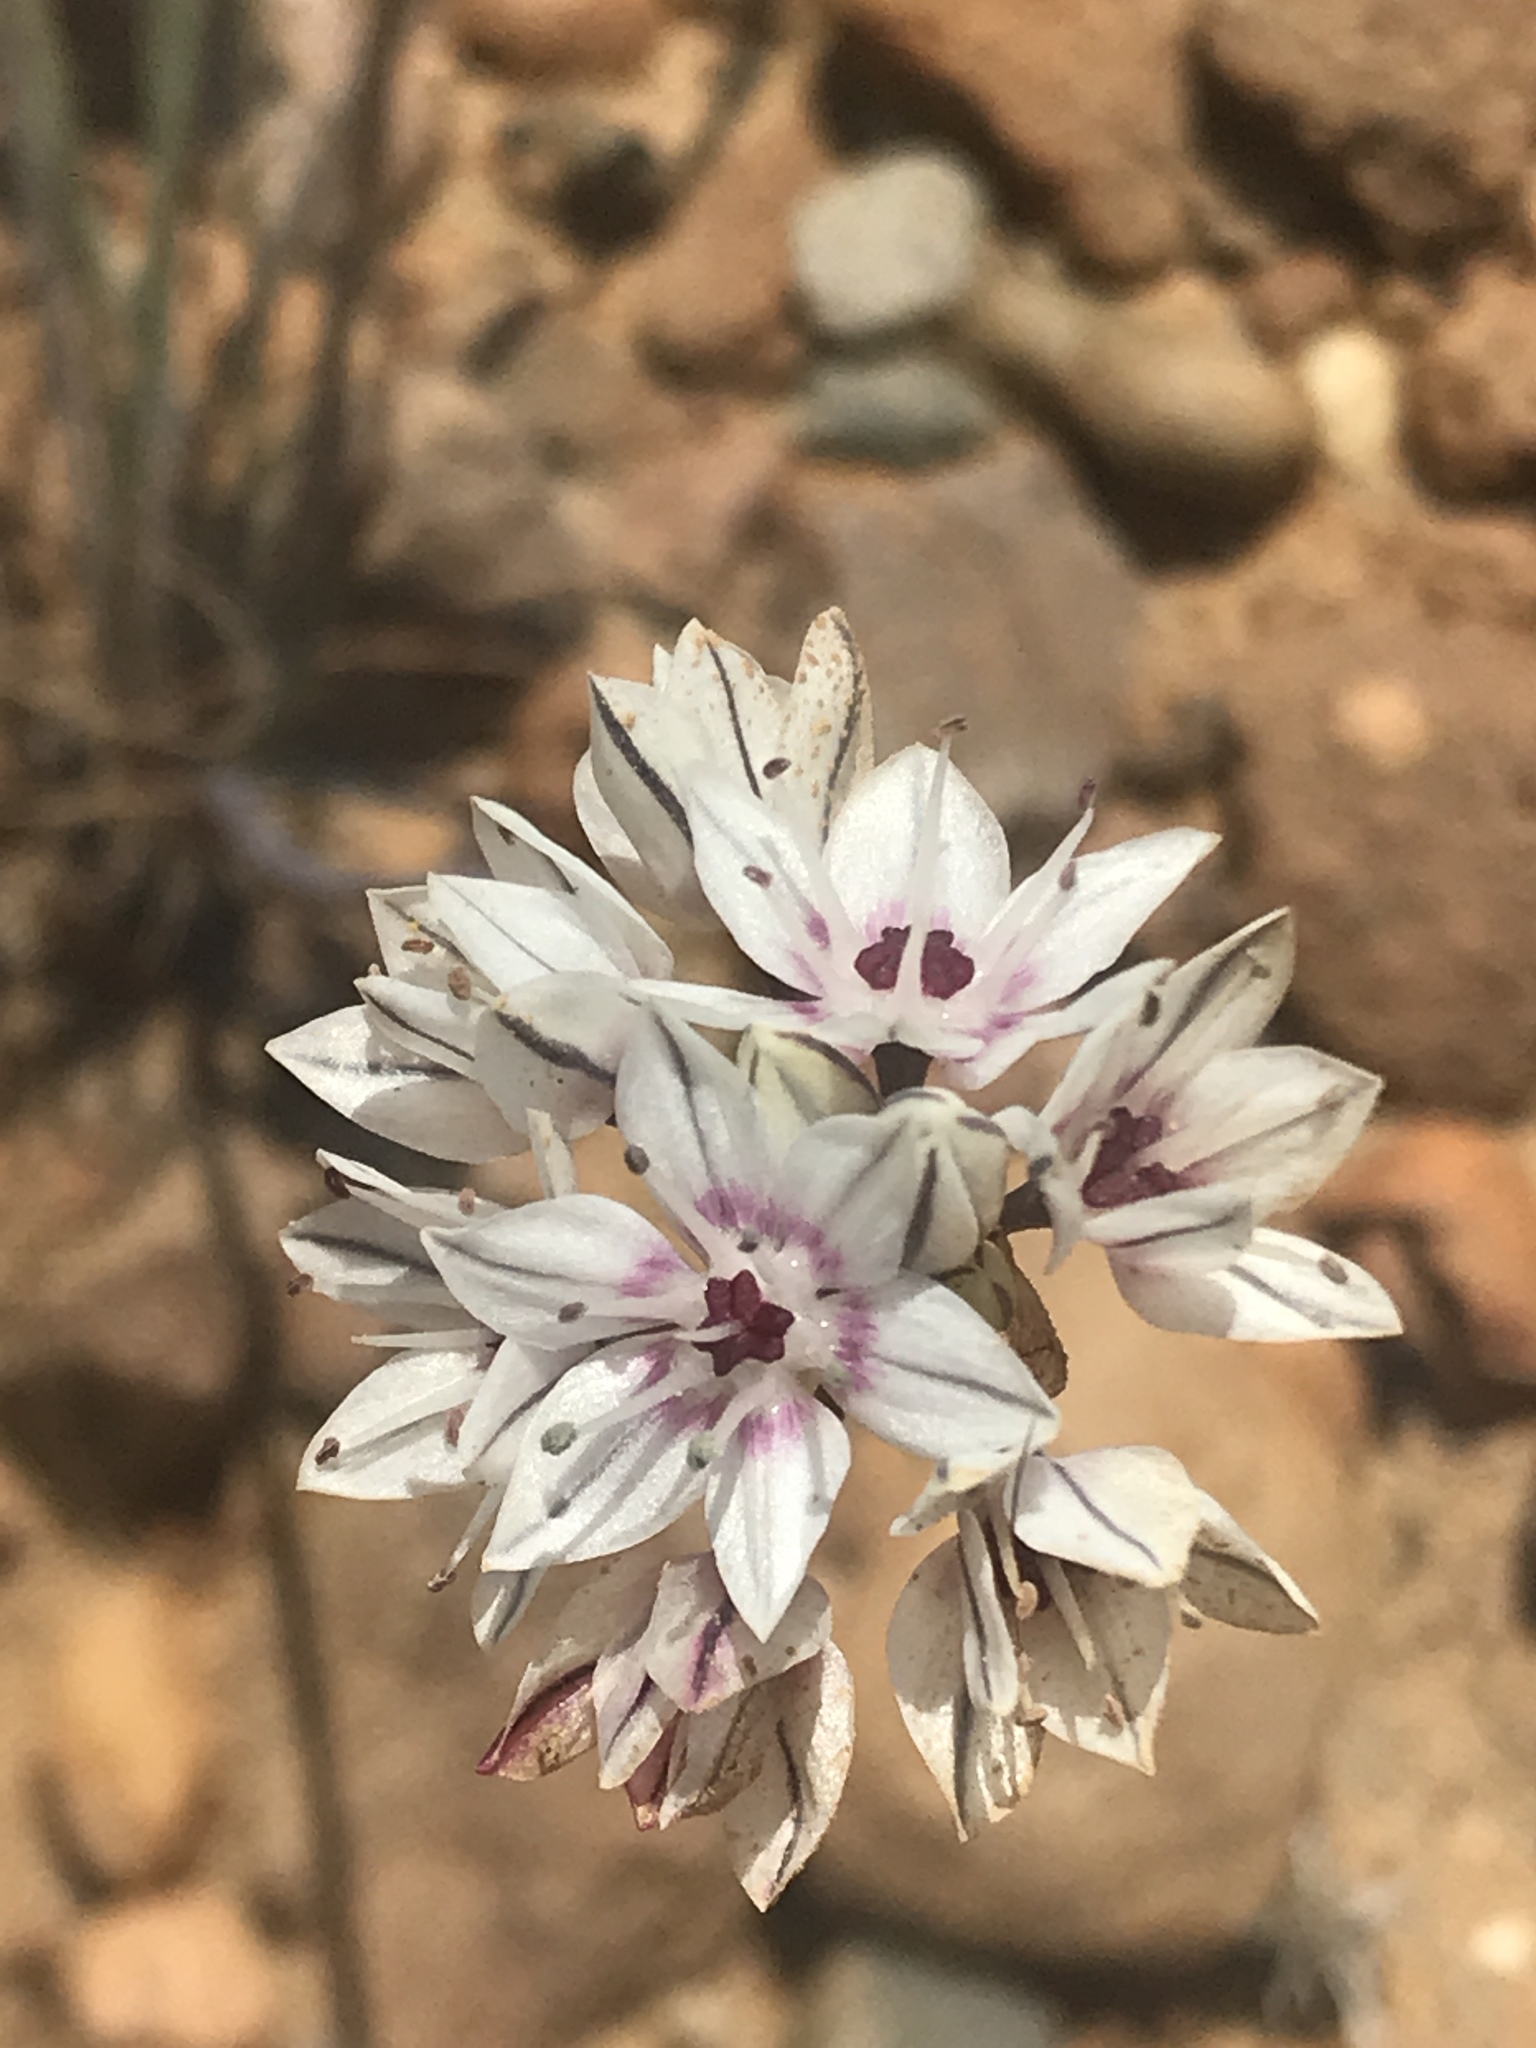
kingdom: Plantae
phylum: Tracheophyta
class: Liliopsida
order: Asparagales
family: Amaryllidaceae
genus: Allium
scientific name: Allium haematochiton
